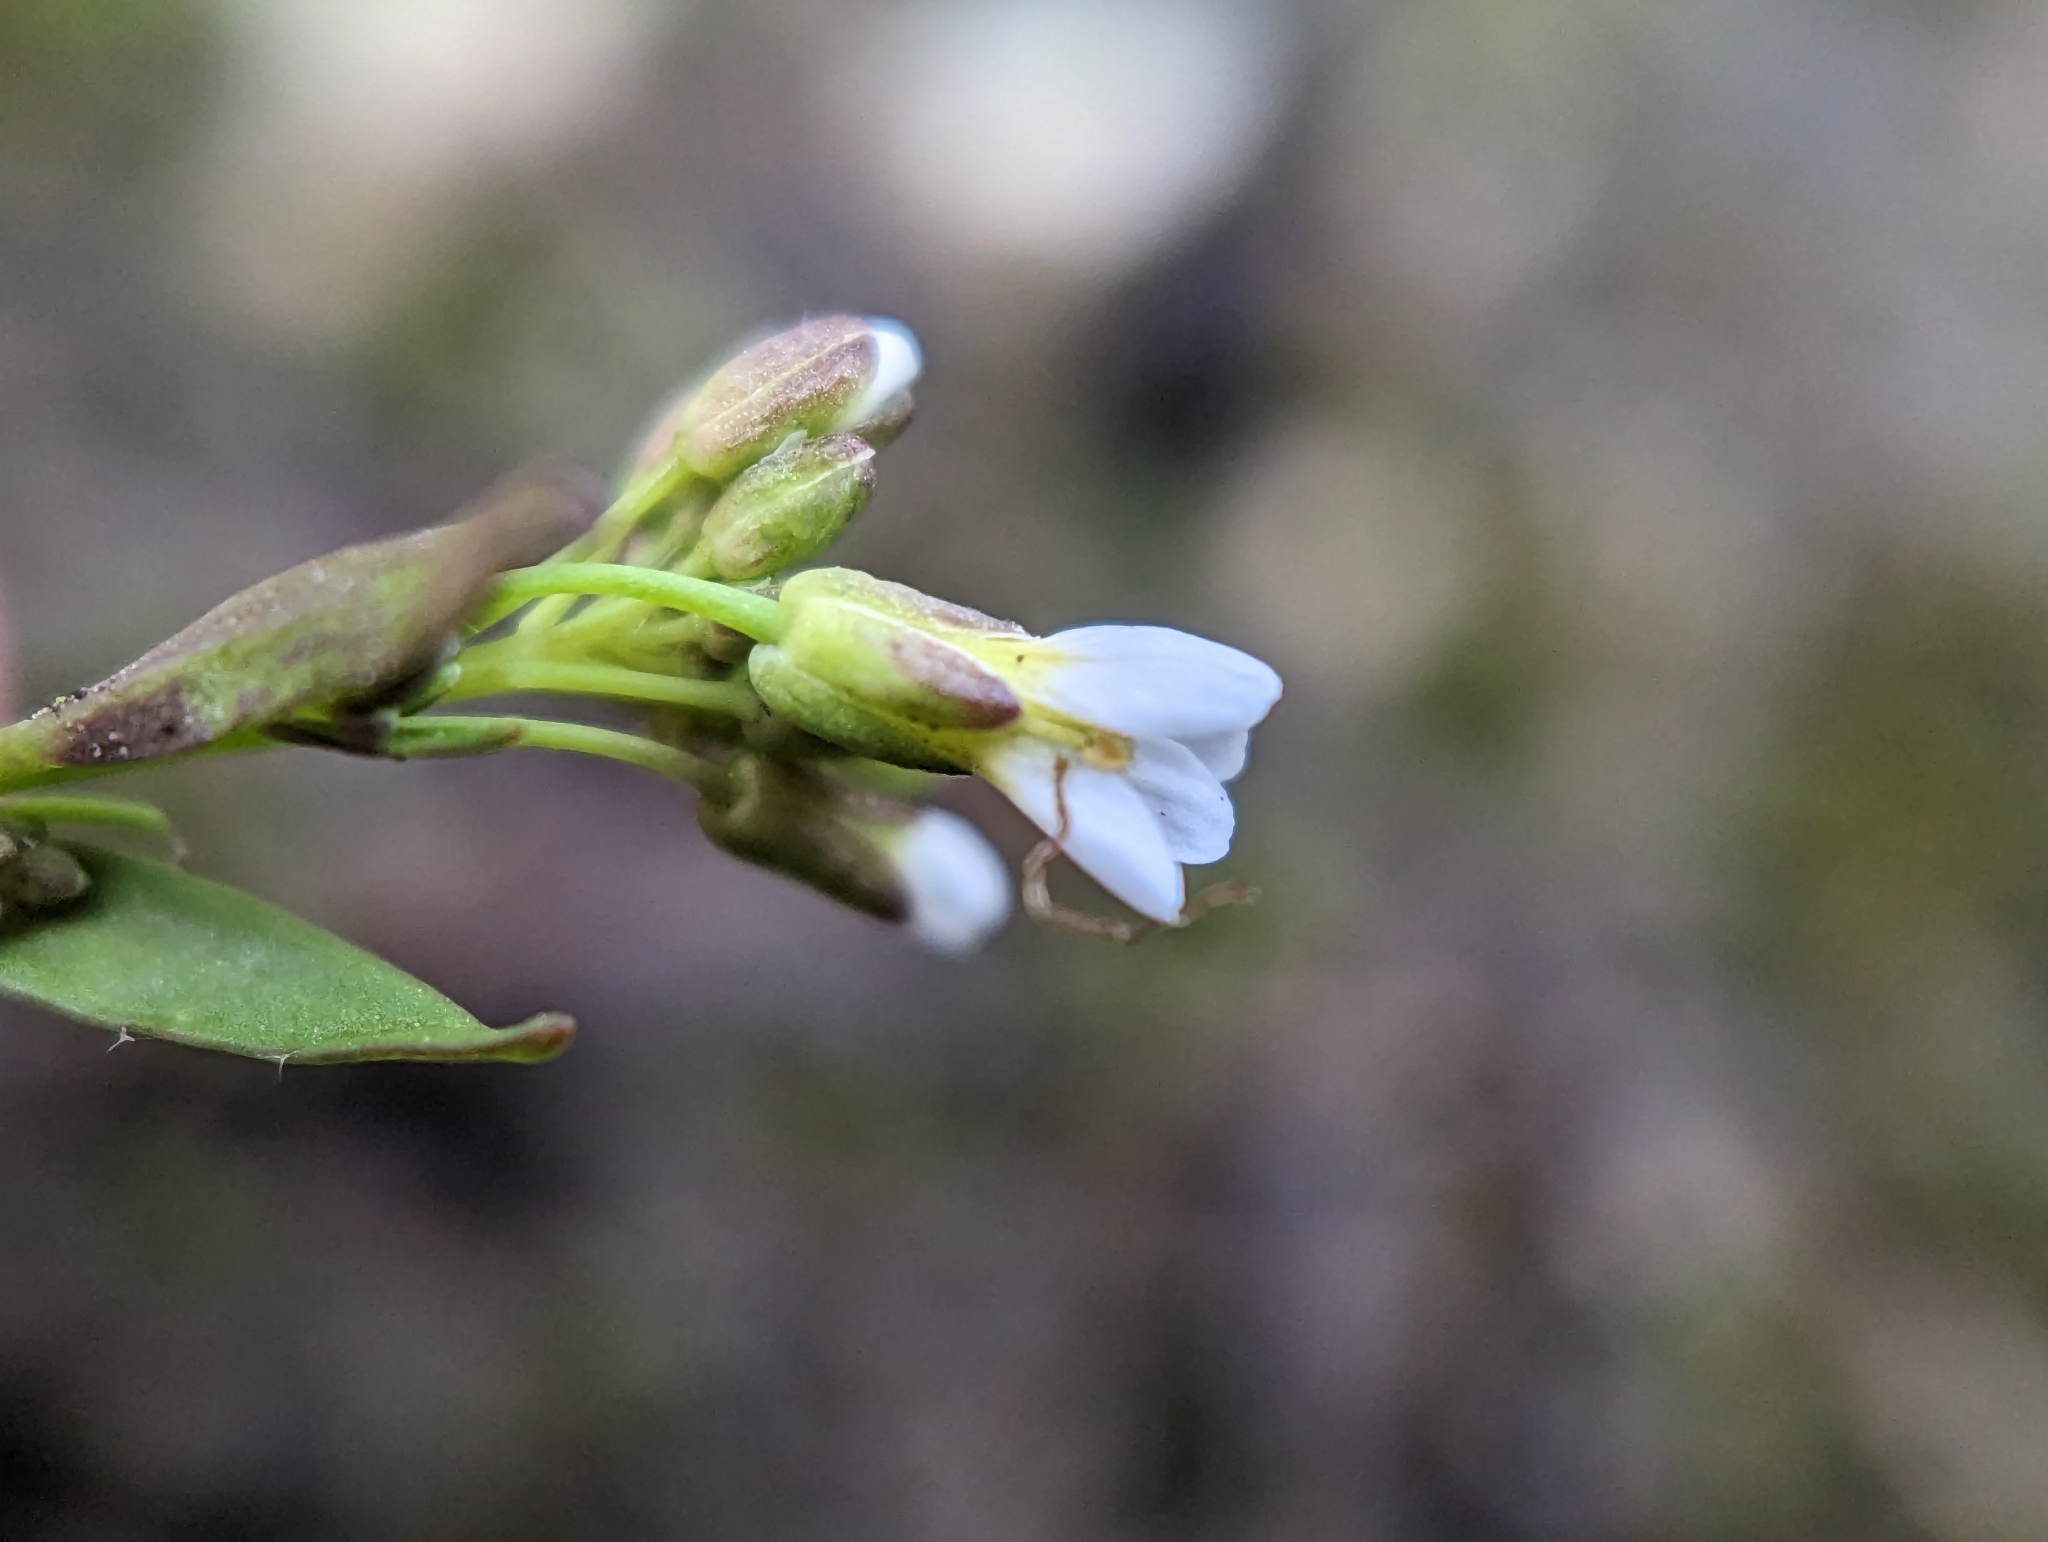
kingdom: Plantae
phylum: Tracheophyta
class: Magnoliopsida
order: Brassicales
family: Brassicaceae
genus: Arabidopsis
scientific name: Arabidopsis thaliana
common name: Thale cress
